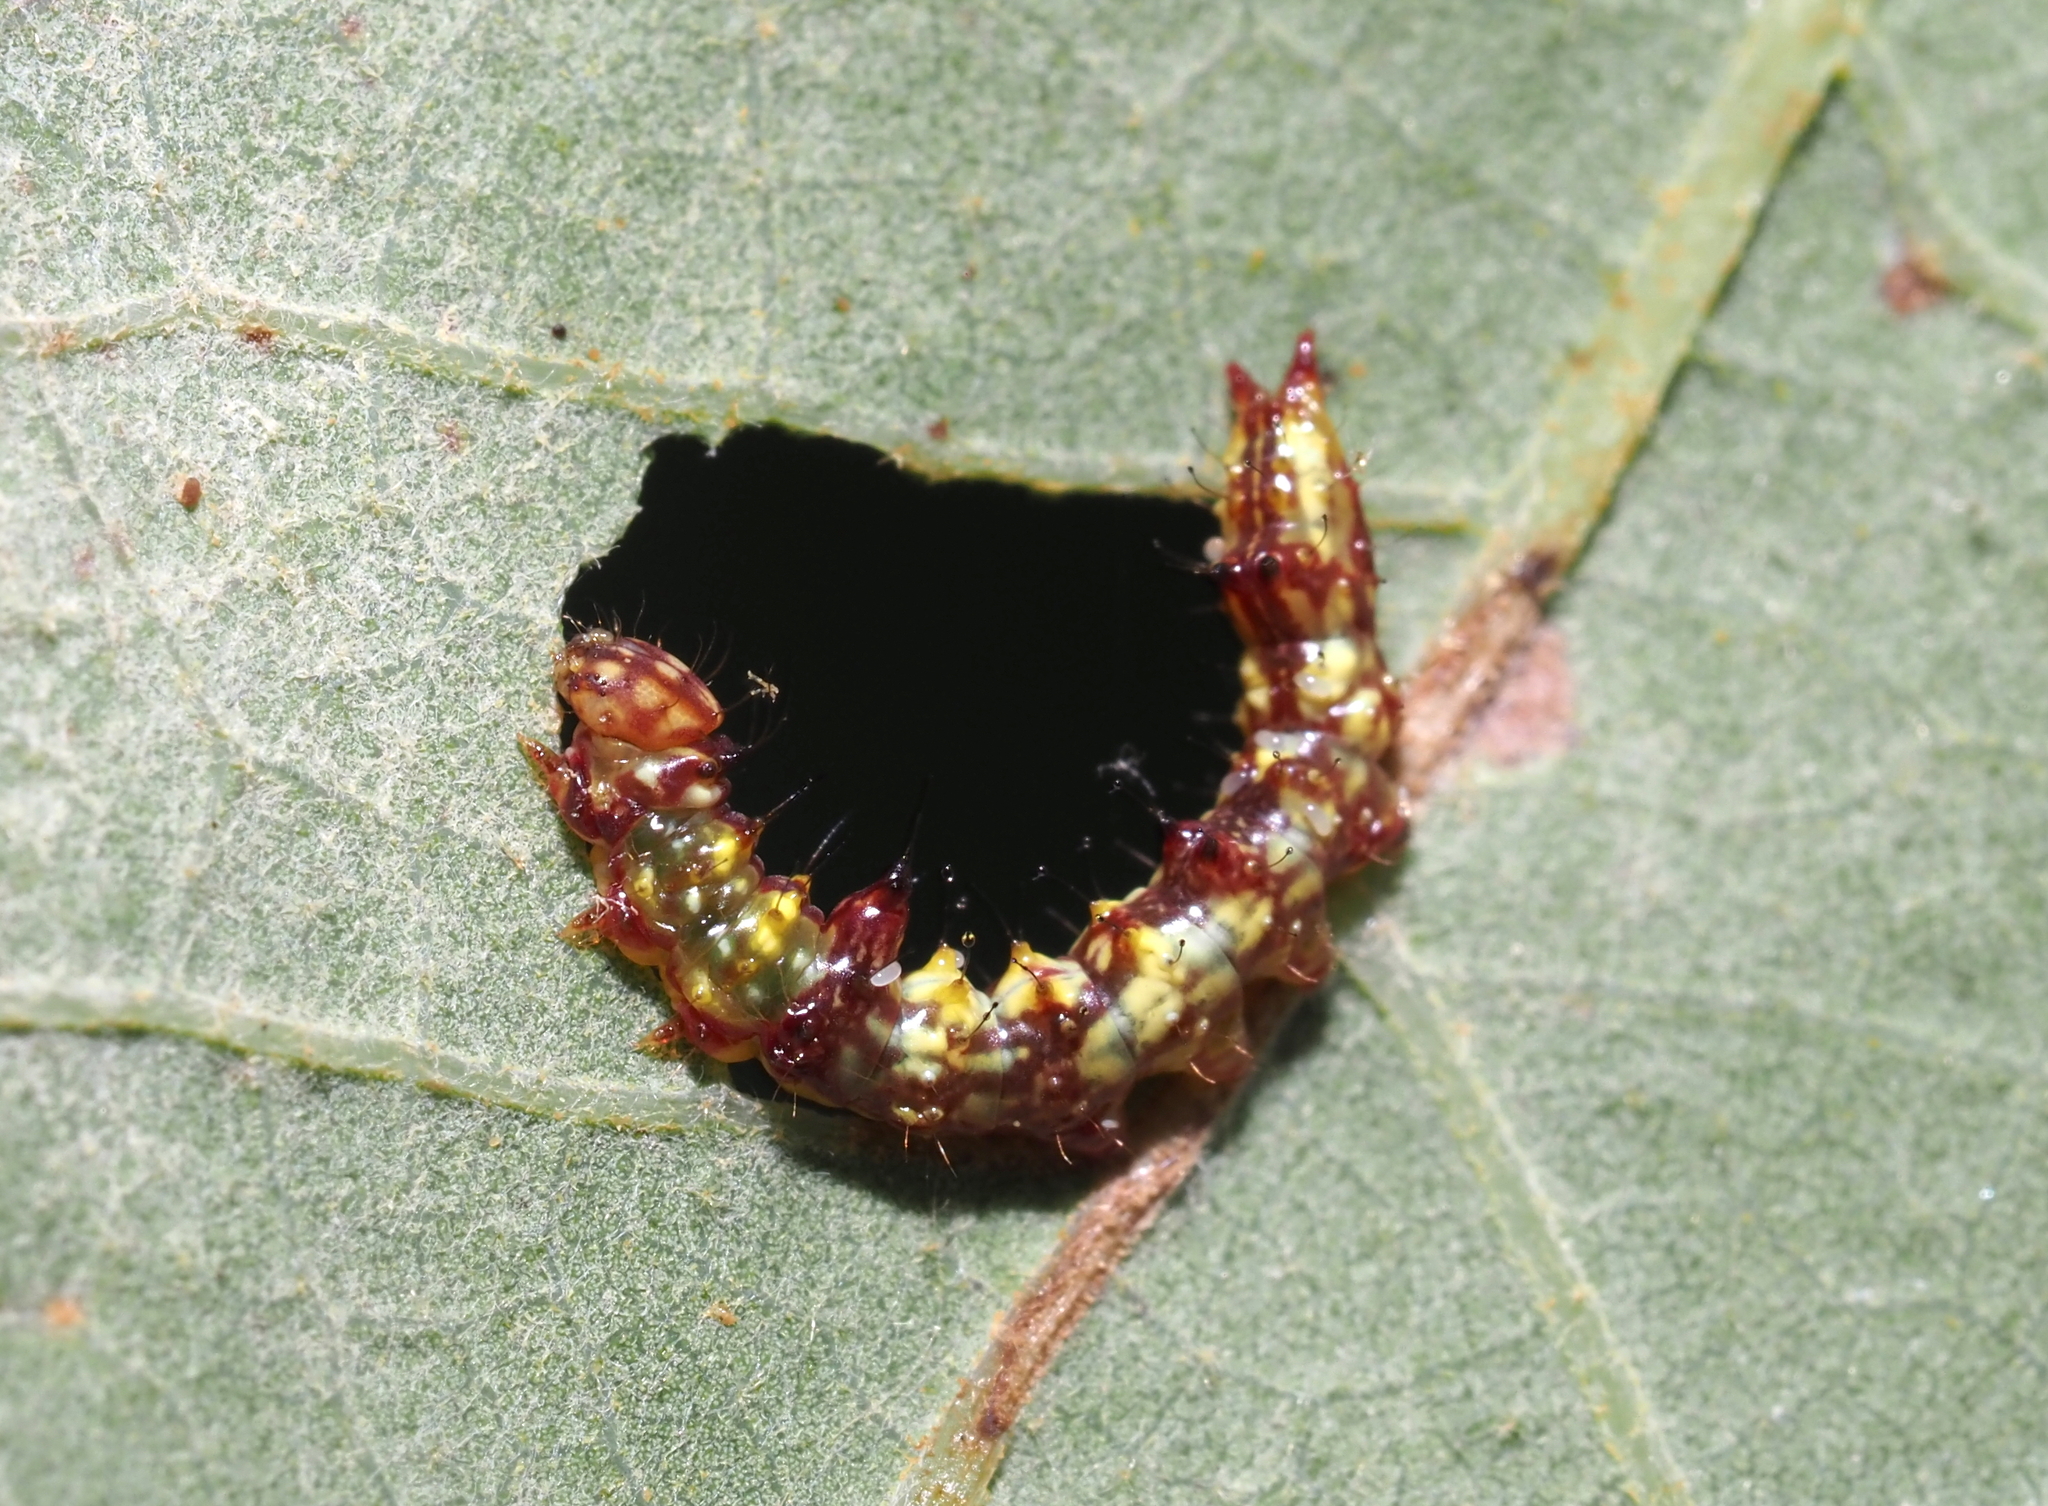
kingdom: Animalia
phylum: Arthropoda
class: Insecta
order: Lepidoptera
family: Notodontidae
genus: Schizura
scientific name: Schizura ipomaeae
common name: Morning-glory prominent
